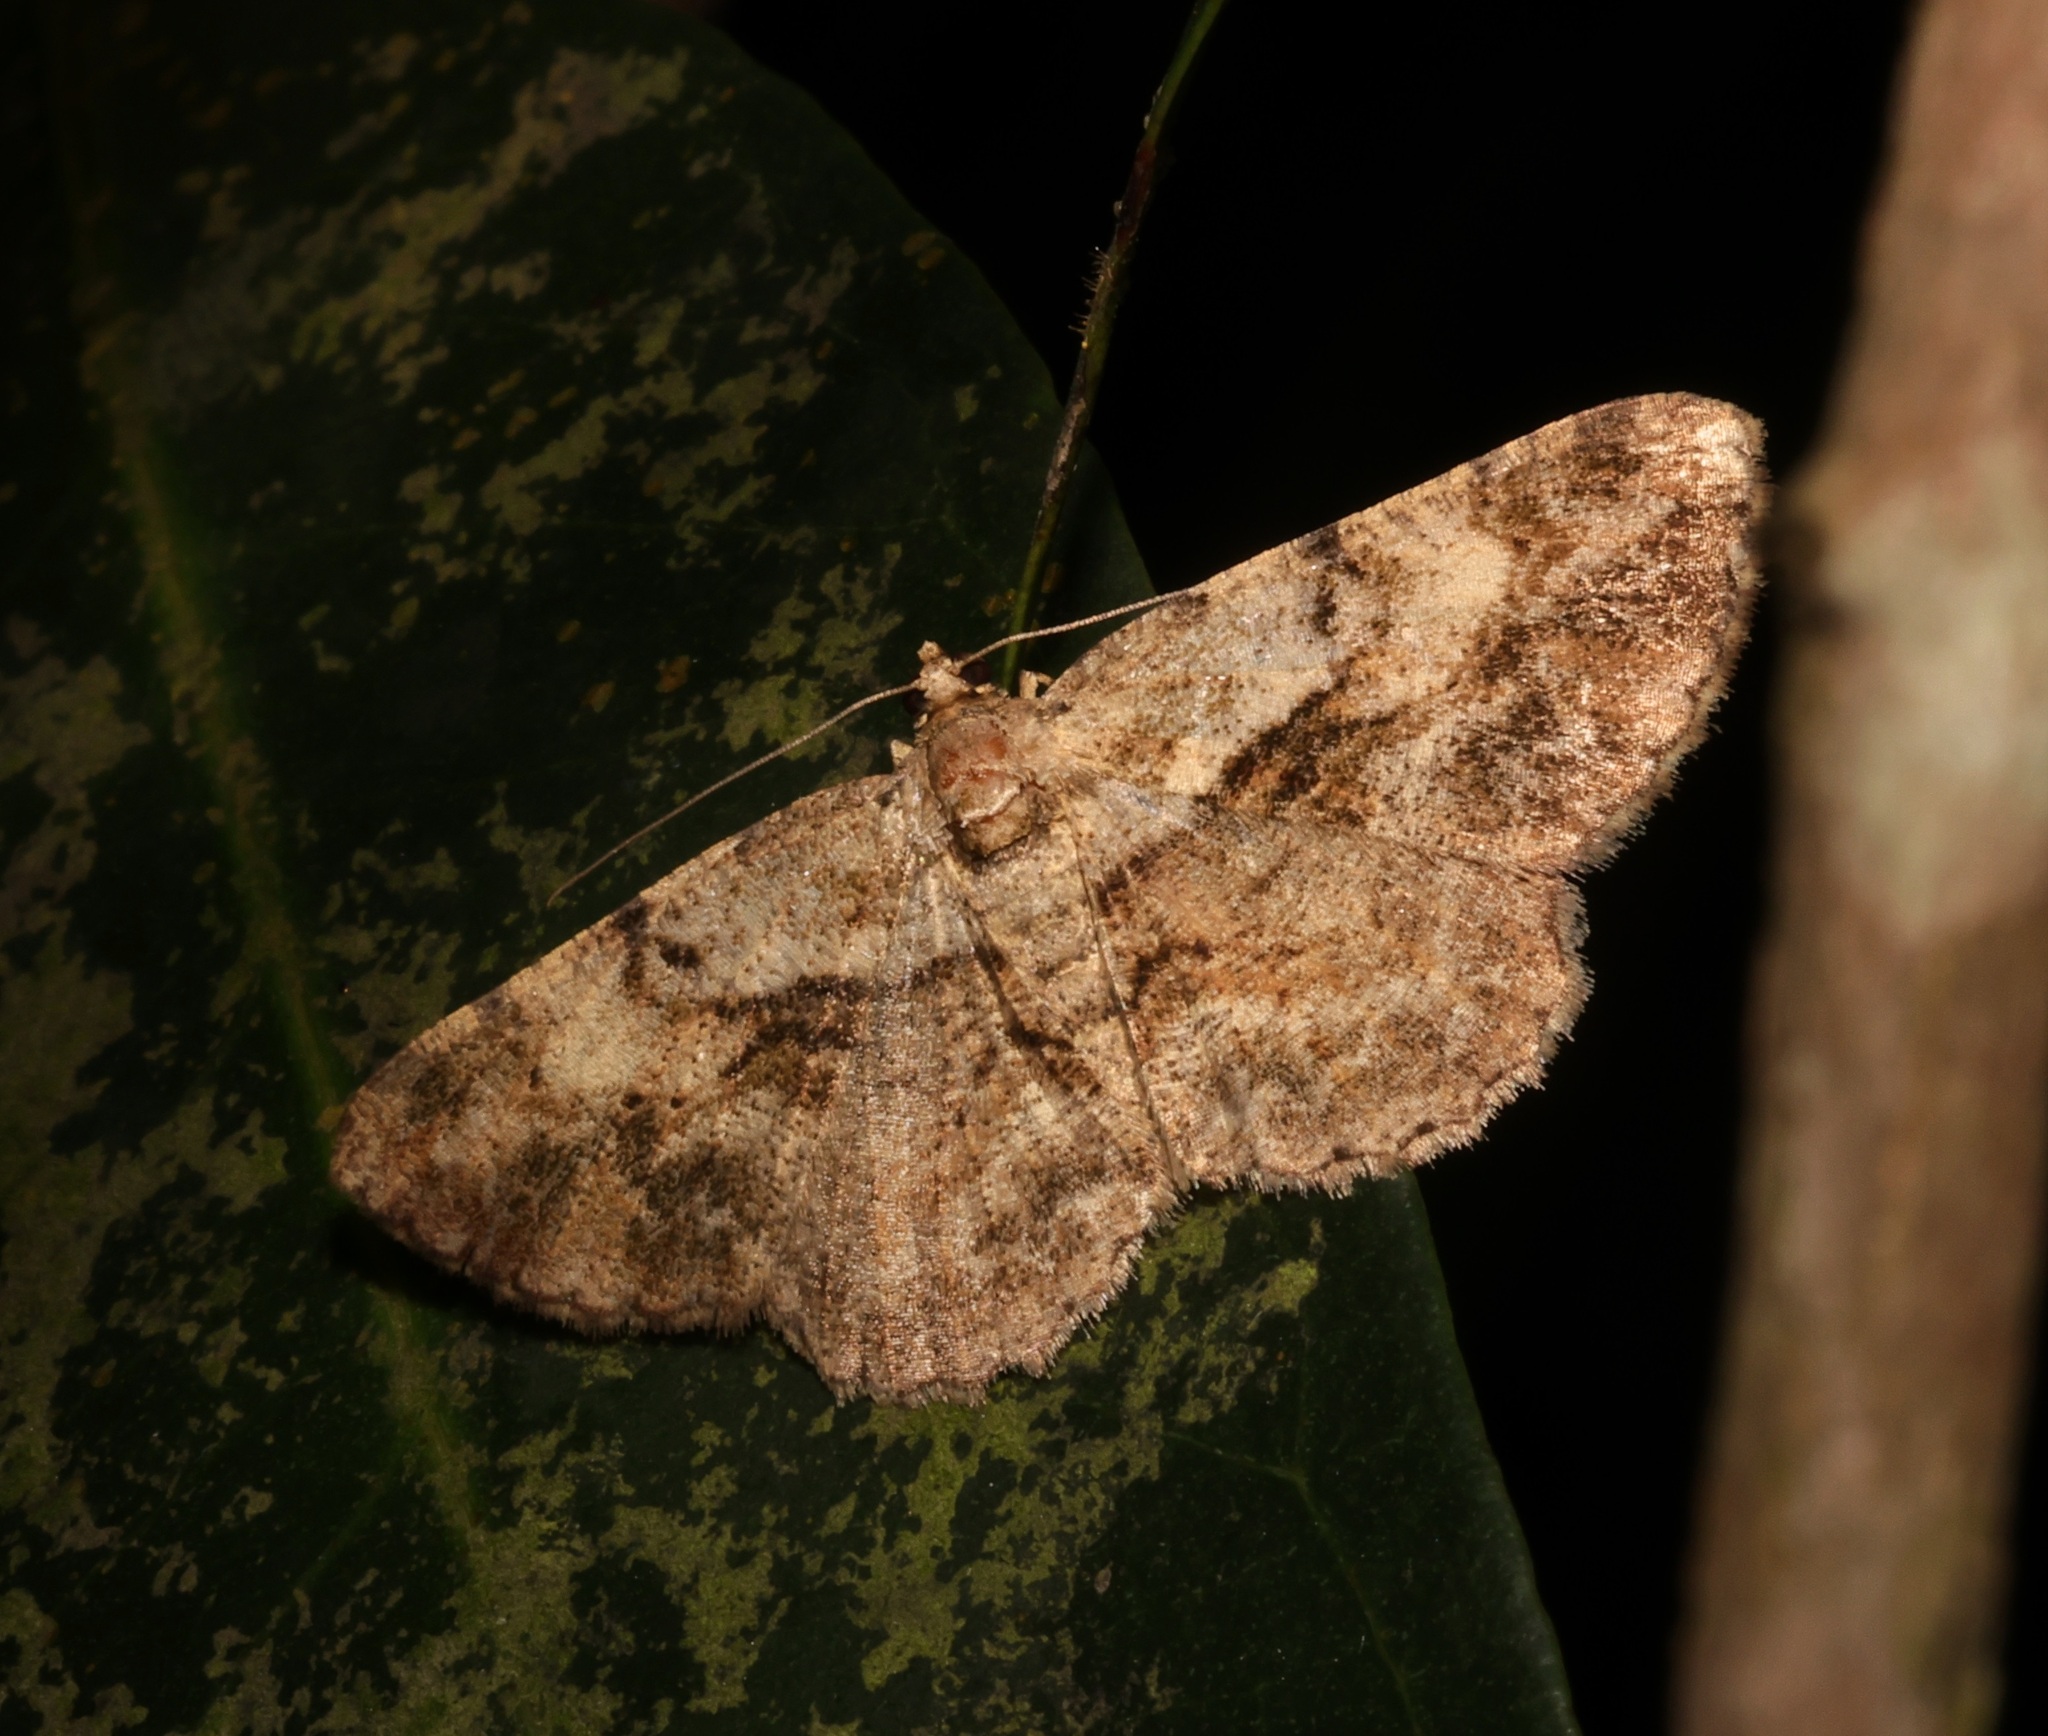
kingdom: Animalia
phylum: Arthropoda
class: Insecta
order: Lepidoptera
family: Geometridae
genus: Psilalcis
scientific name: Psilalcis galsworthyi
